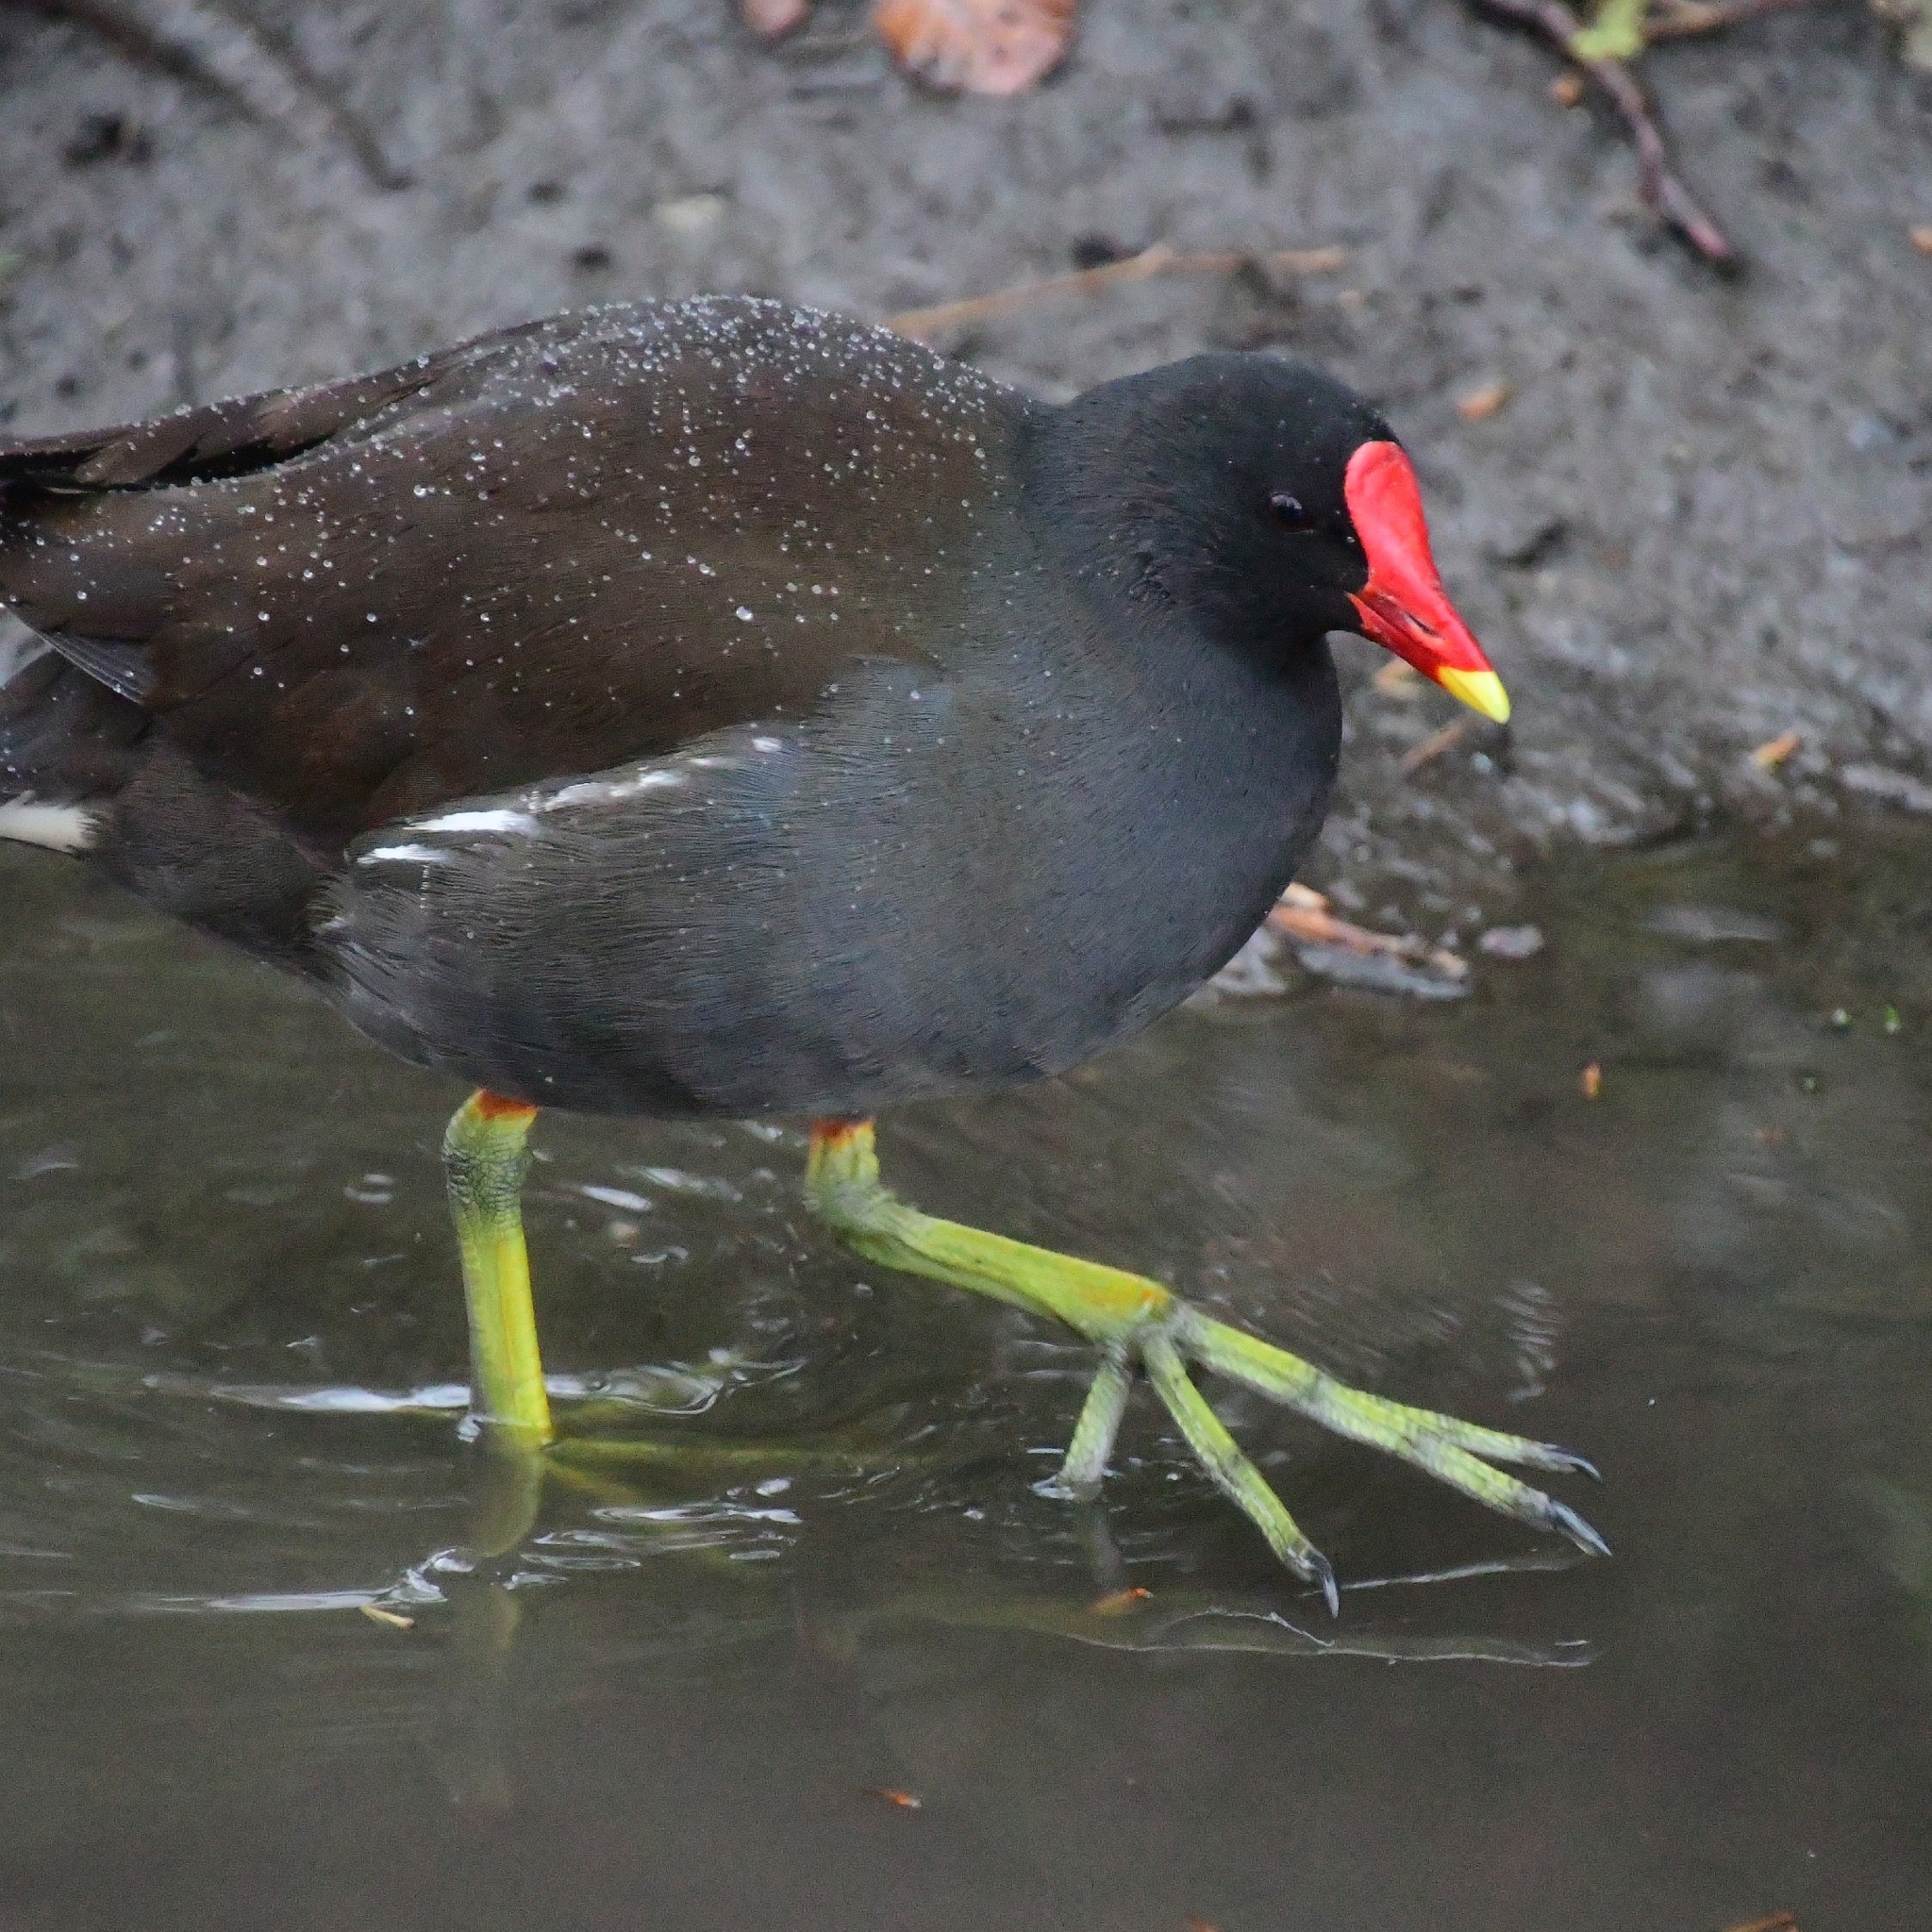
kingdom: Animalia
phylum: Chordata
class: Aves
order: Gruiformes
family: Rallidae
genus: Gallinula
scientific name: Gallinula chloropus
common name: Common moorhen
